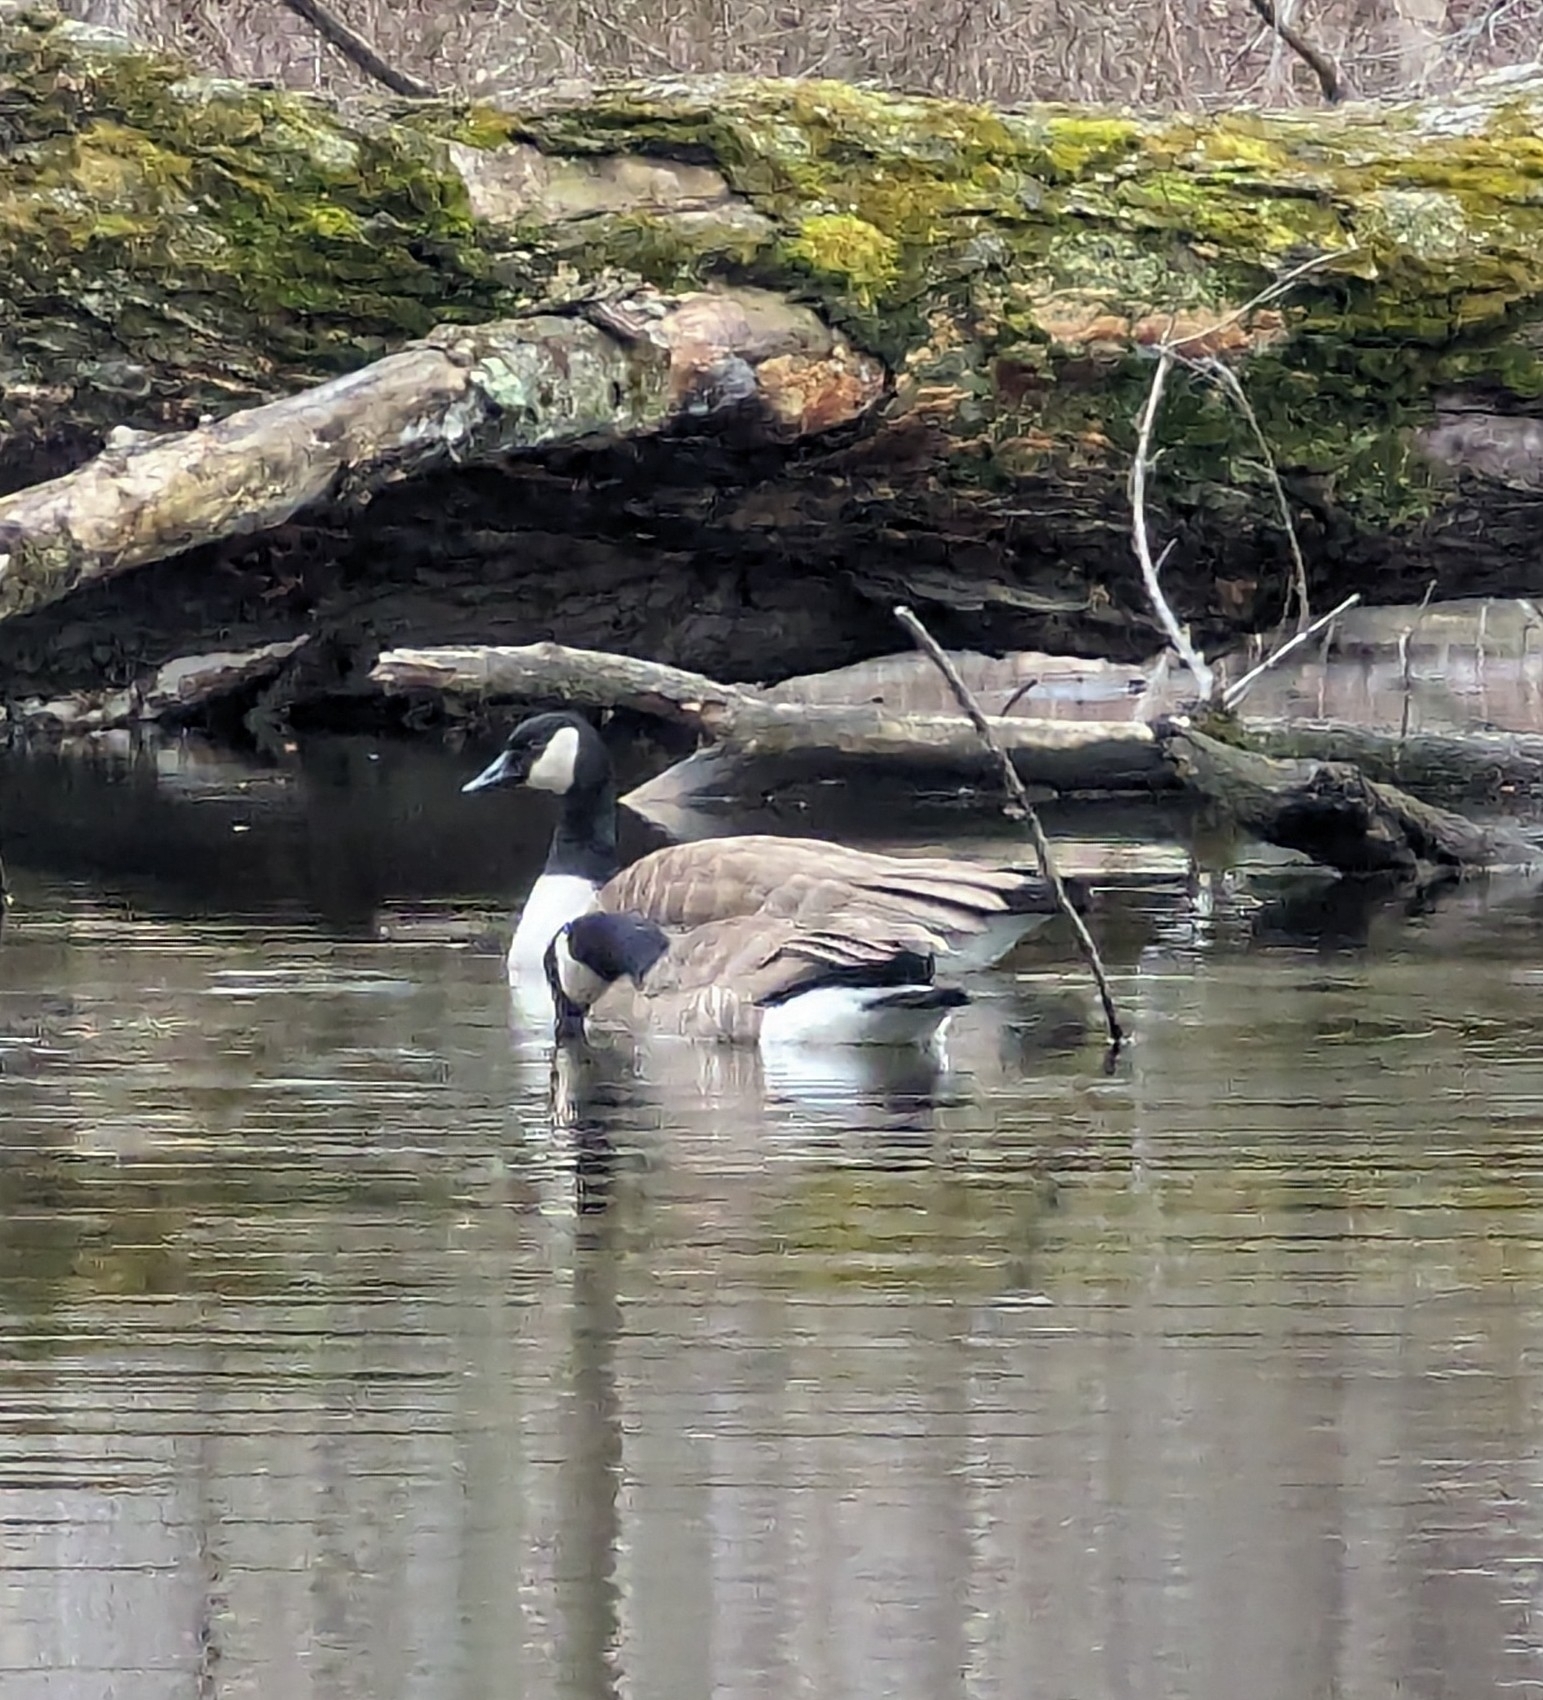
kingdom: Animalia
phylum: Chordata
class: Aves
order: Anseriformes
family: Anatidae
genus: Branta
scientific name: Branta canadensis
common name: Canada goose
